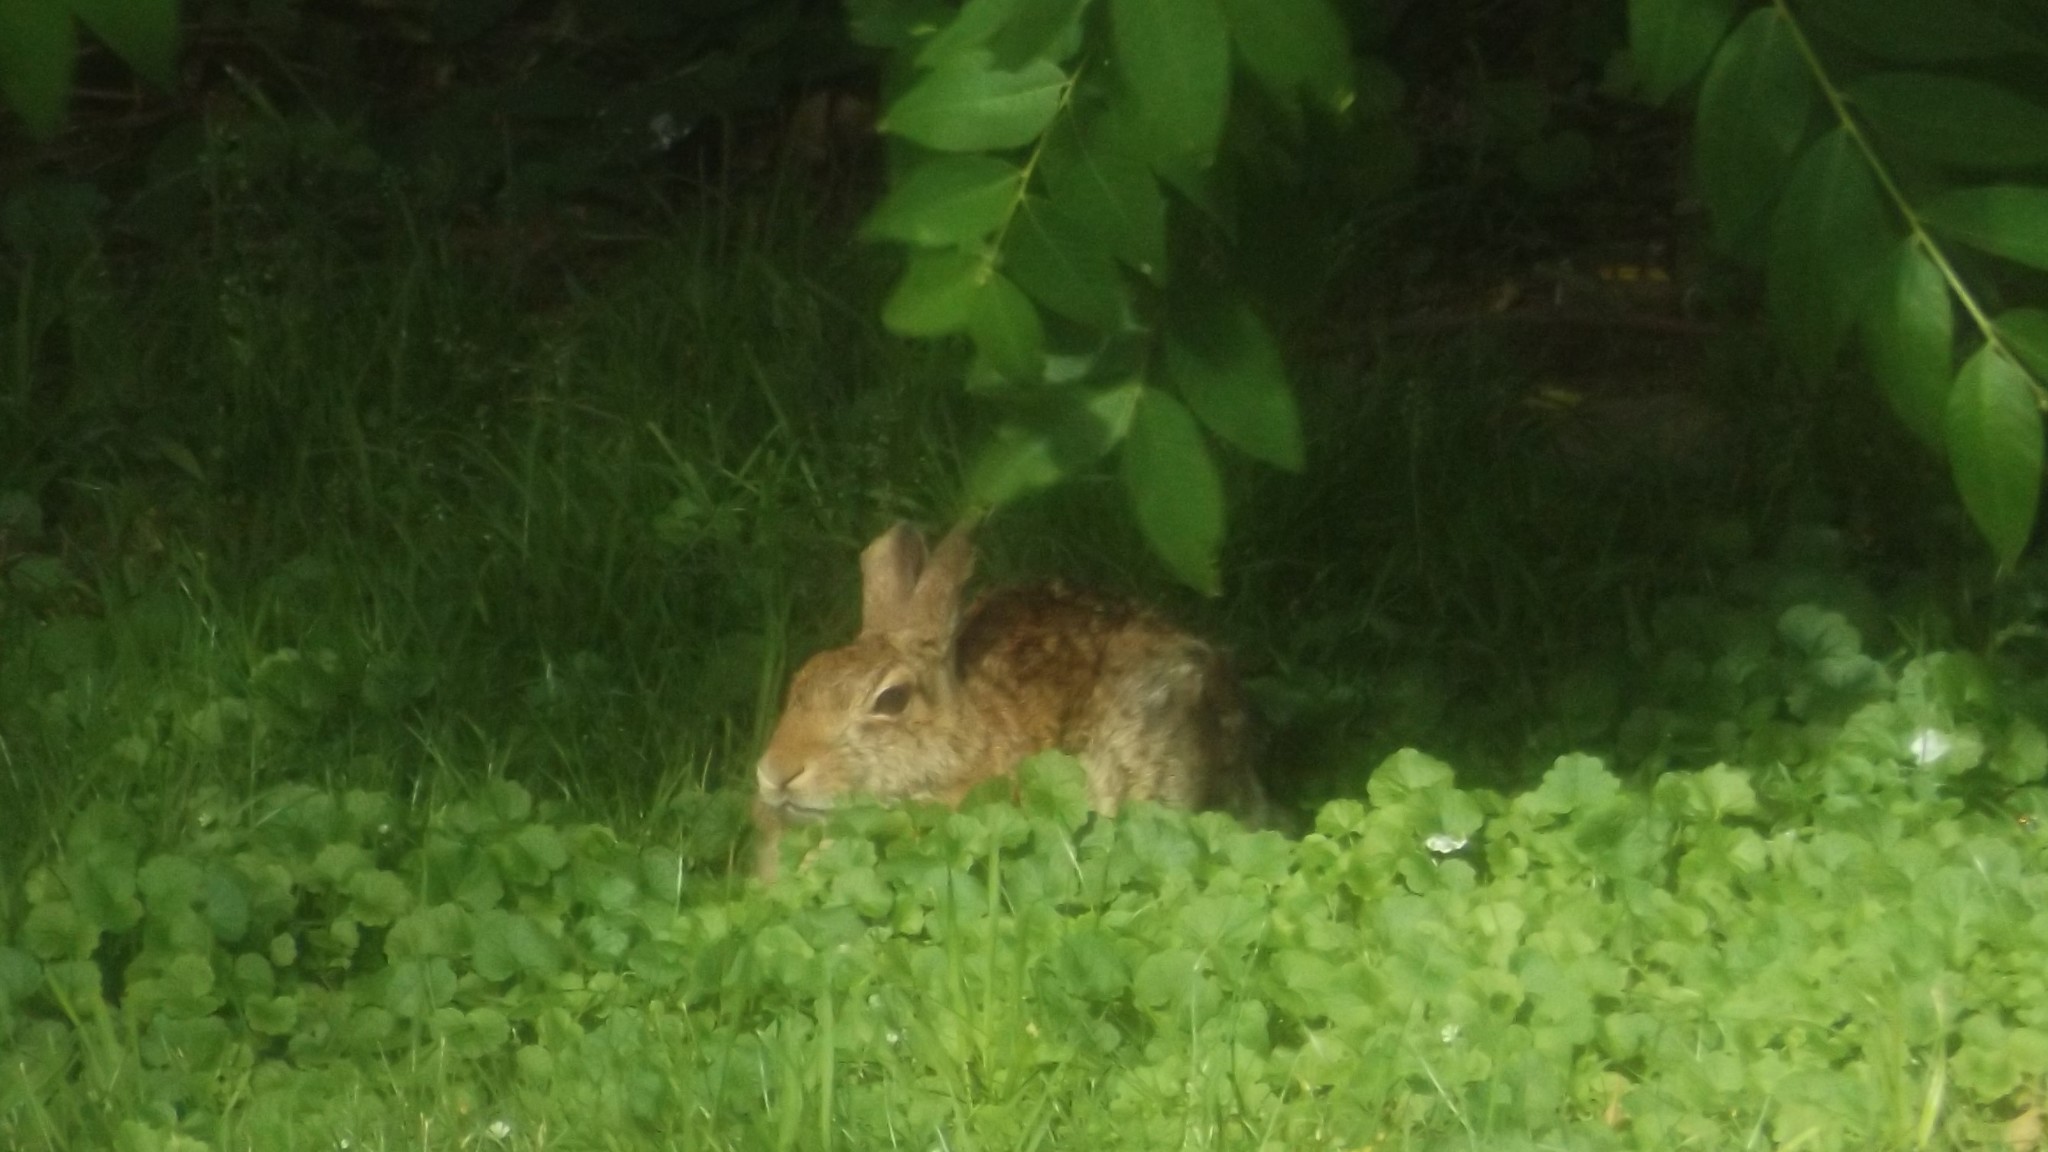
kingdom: Animalia
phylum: Chordata
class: Mammalia
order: Lagomorpha
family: Leporidae
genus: Sylvilagus
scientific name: Sylvilagus floridanus
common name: Eastern cottontail
